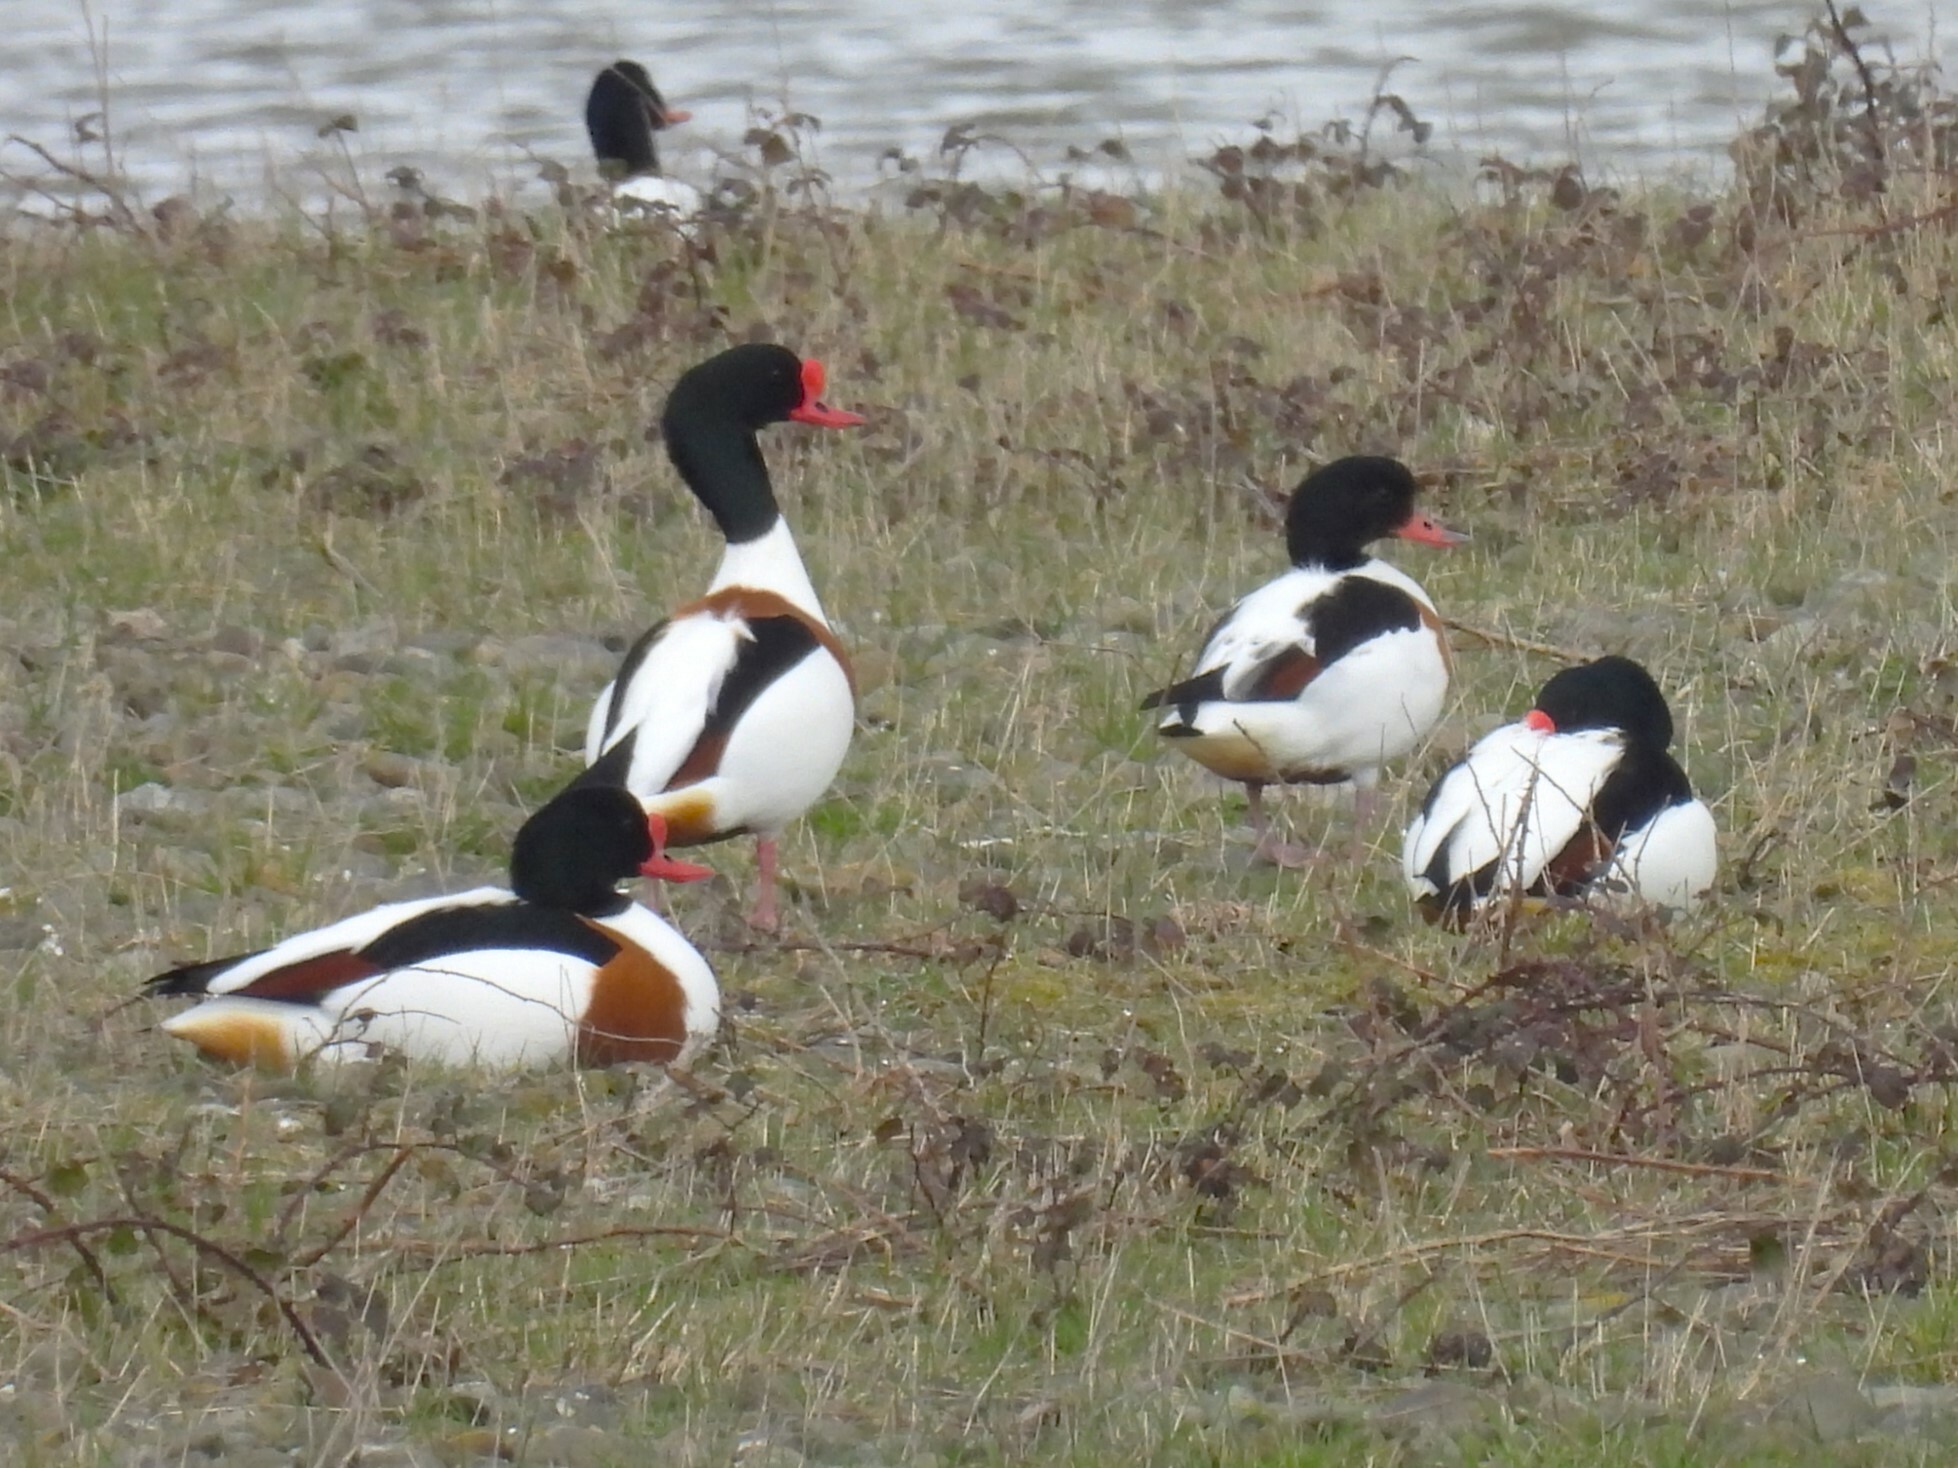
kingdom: Animalia
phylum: Chordata
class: Aves
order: Anseriformes
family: Anatidae
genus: Tadorna
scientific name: Tadorna tadorna
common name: Common shelduck
